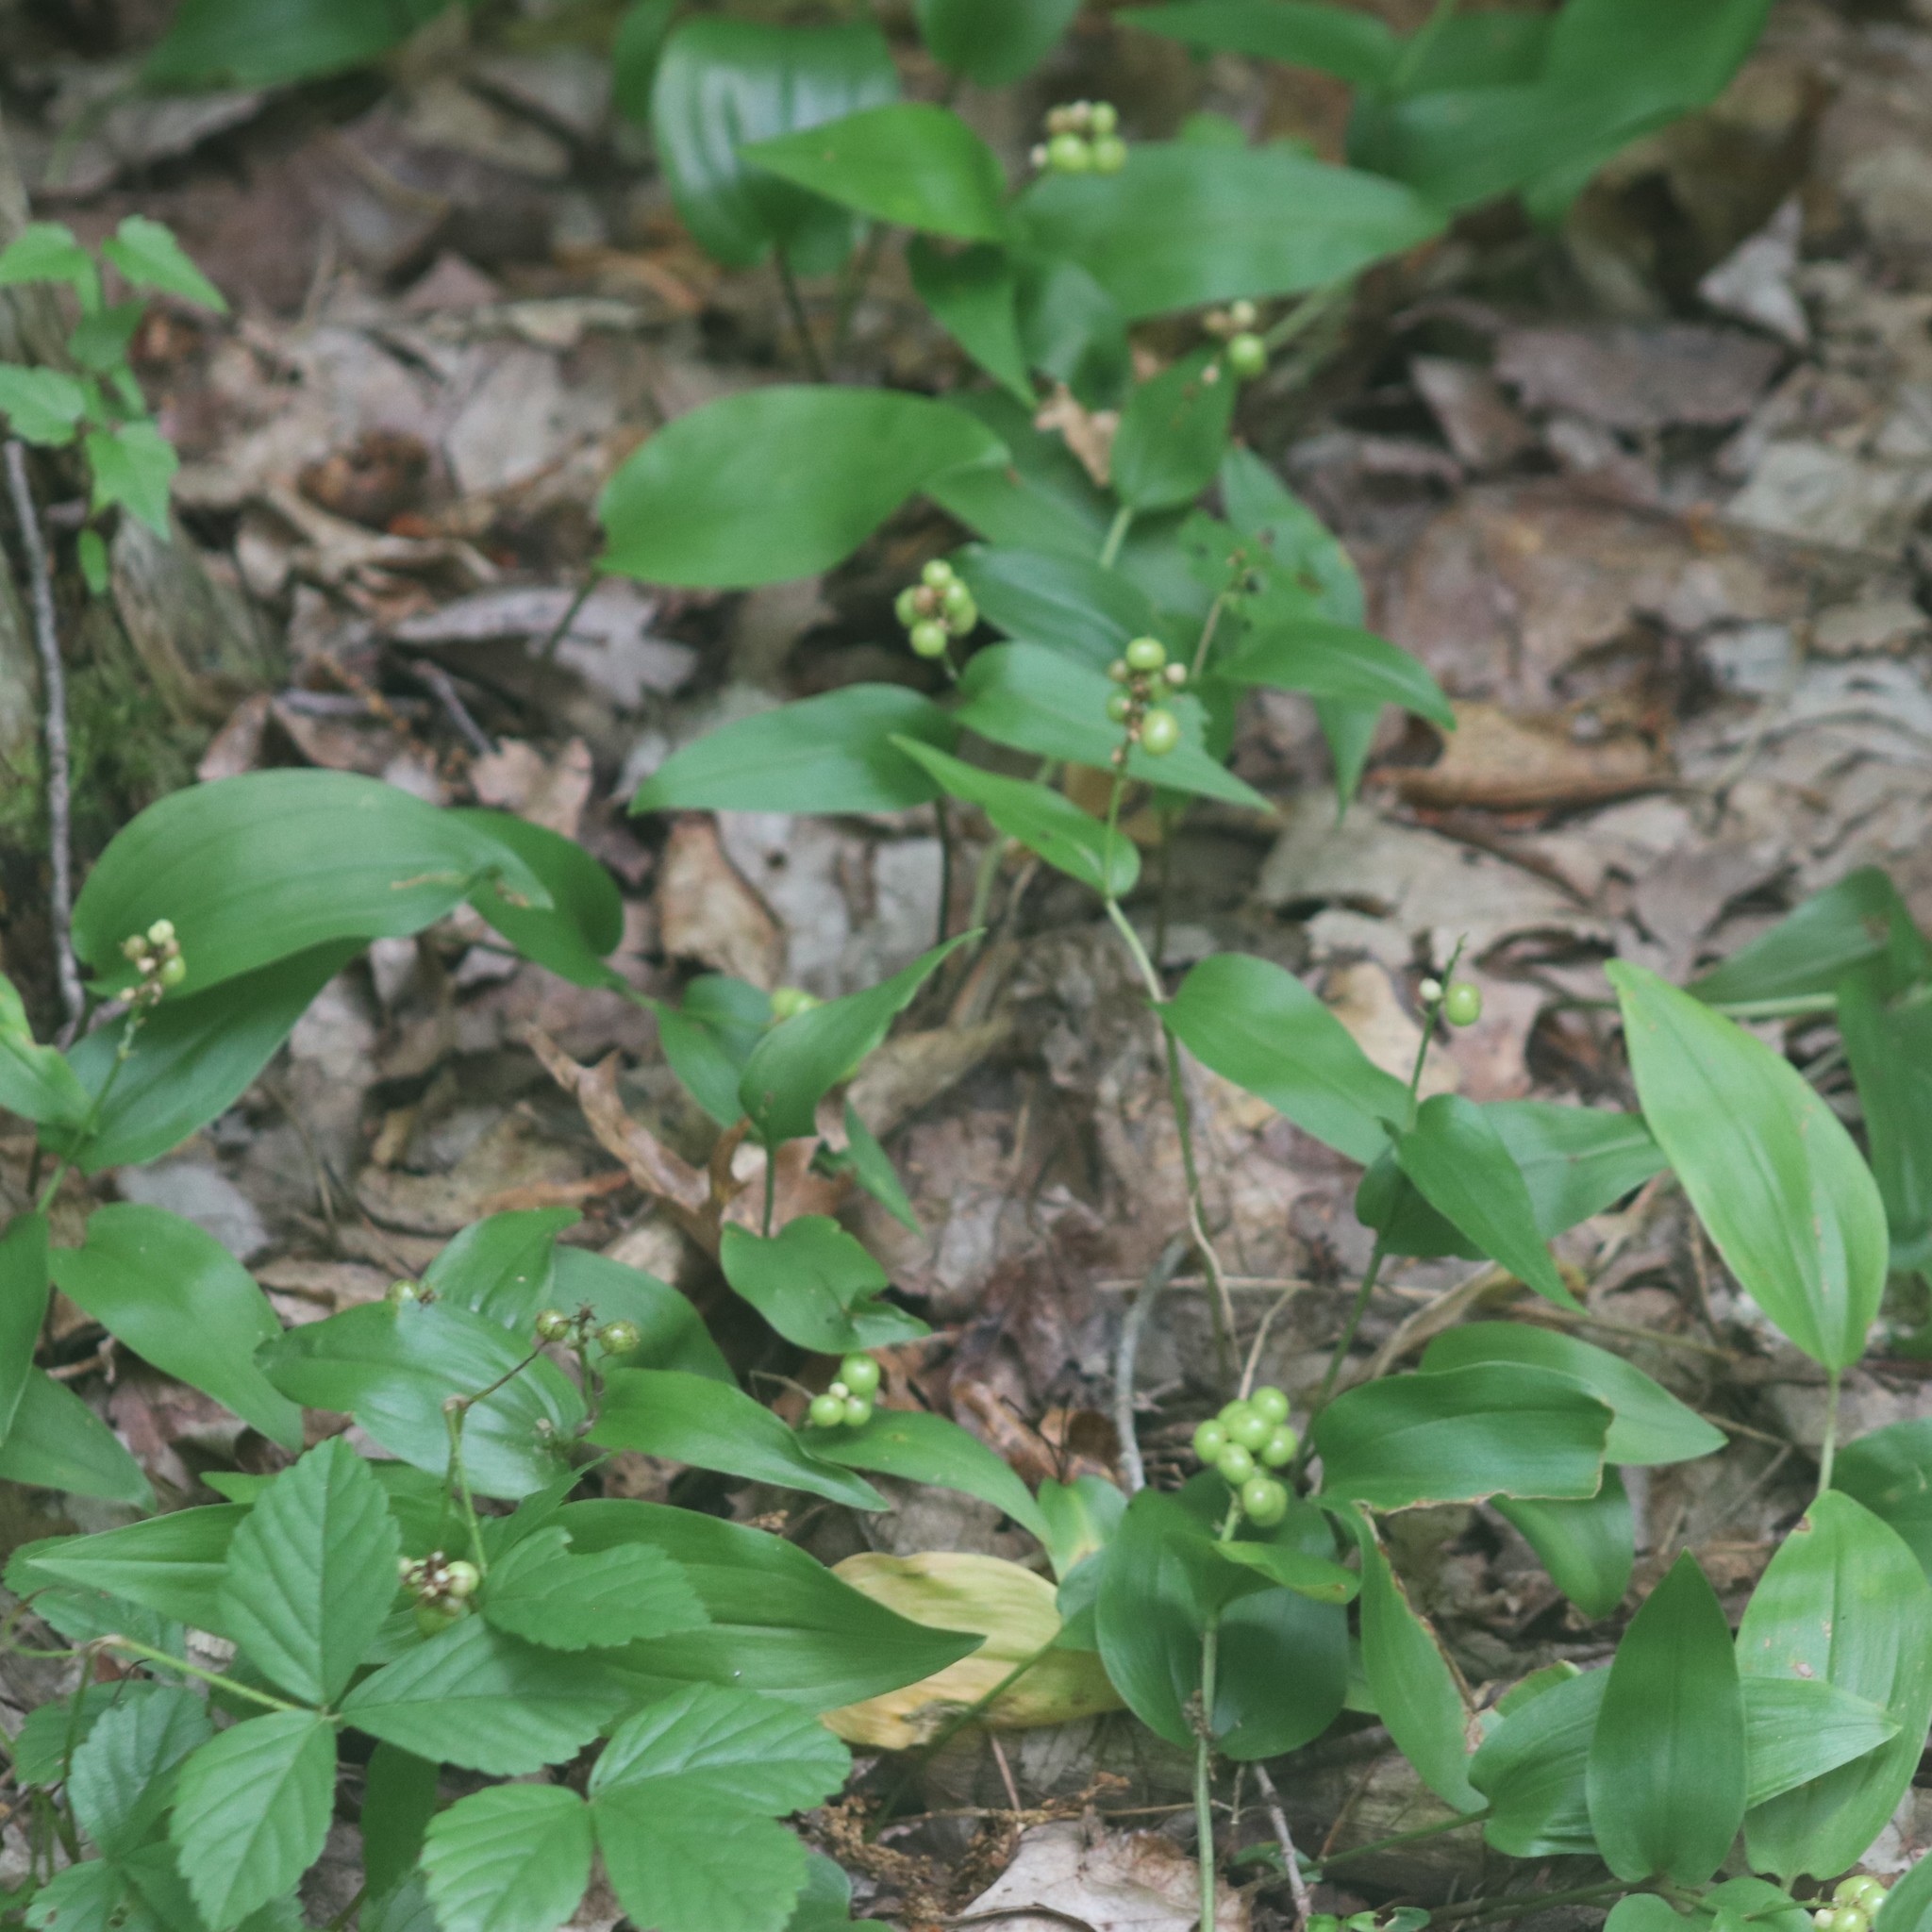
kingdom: Plantae
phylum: Tracheophyta
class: Liliopsida
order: Asparagales
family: Asparagaceae
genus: Maianthemum
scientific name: Maianthemum canadense
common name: False lily-of-the-valley
